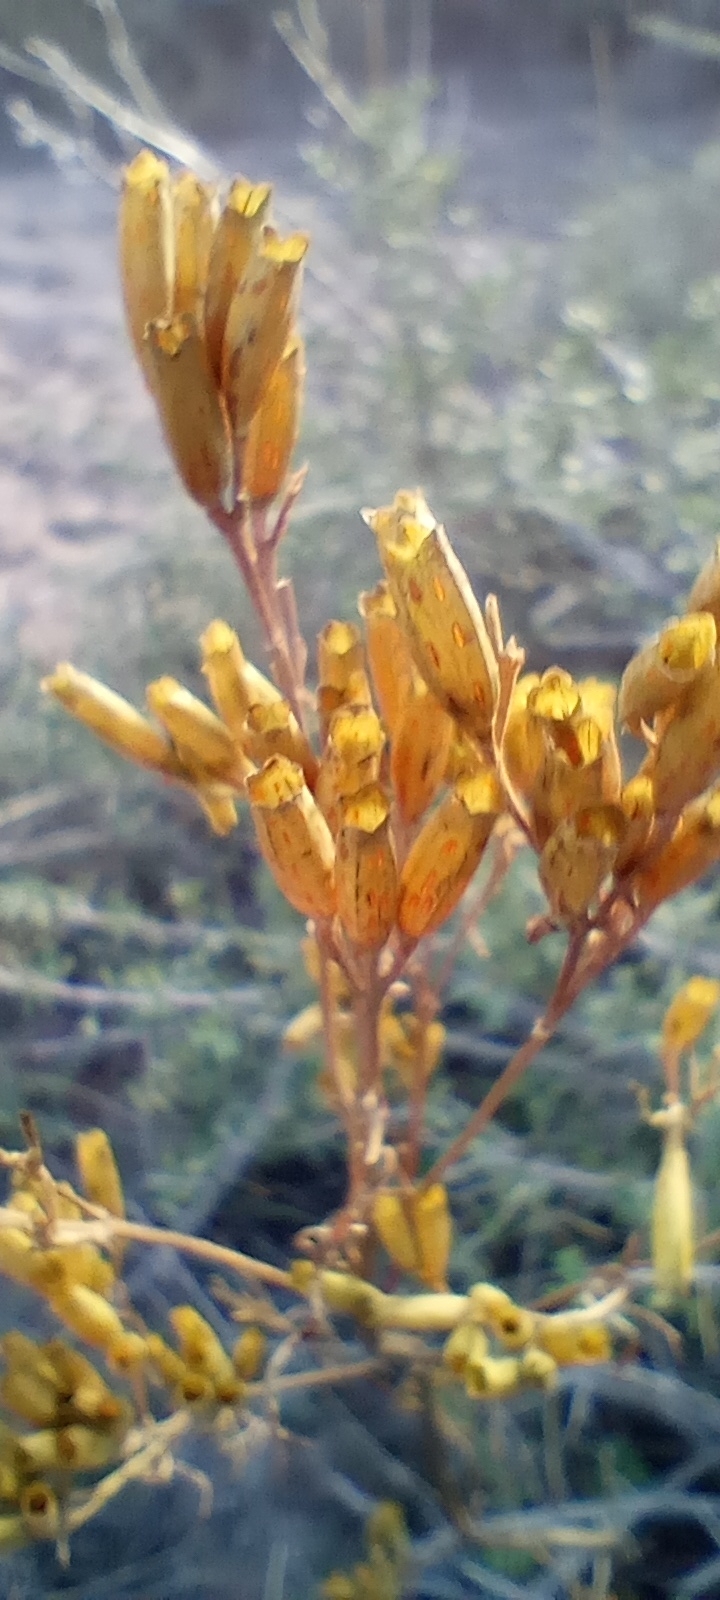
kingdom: Plantae
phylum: Tracheophyta
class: Magnoliopsida
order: Asterales
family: Asteraceae
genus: Tagetes
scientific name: Tagetes minuta
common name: Muster john henry
